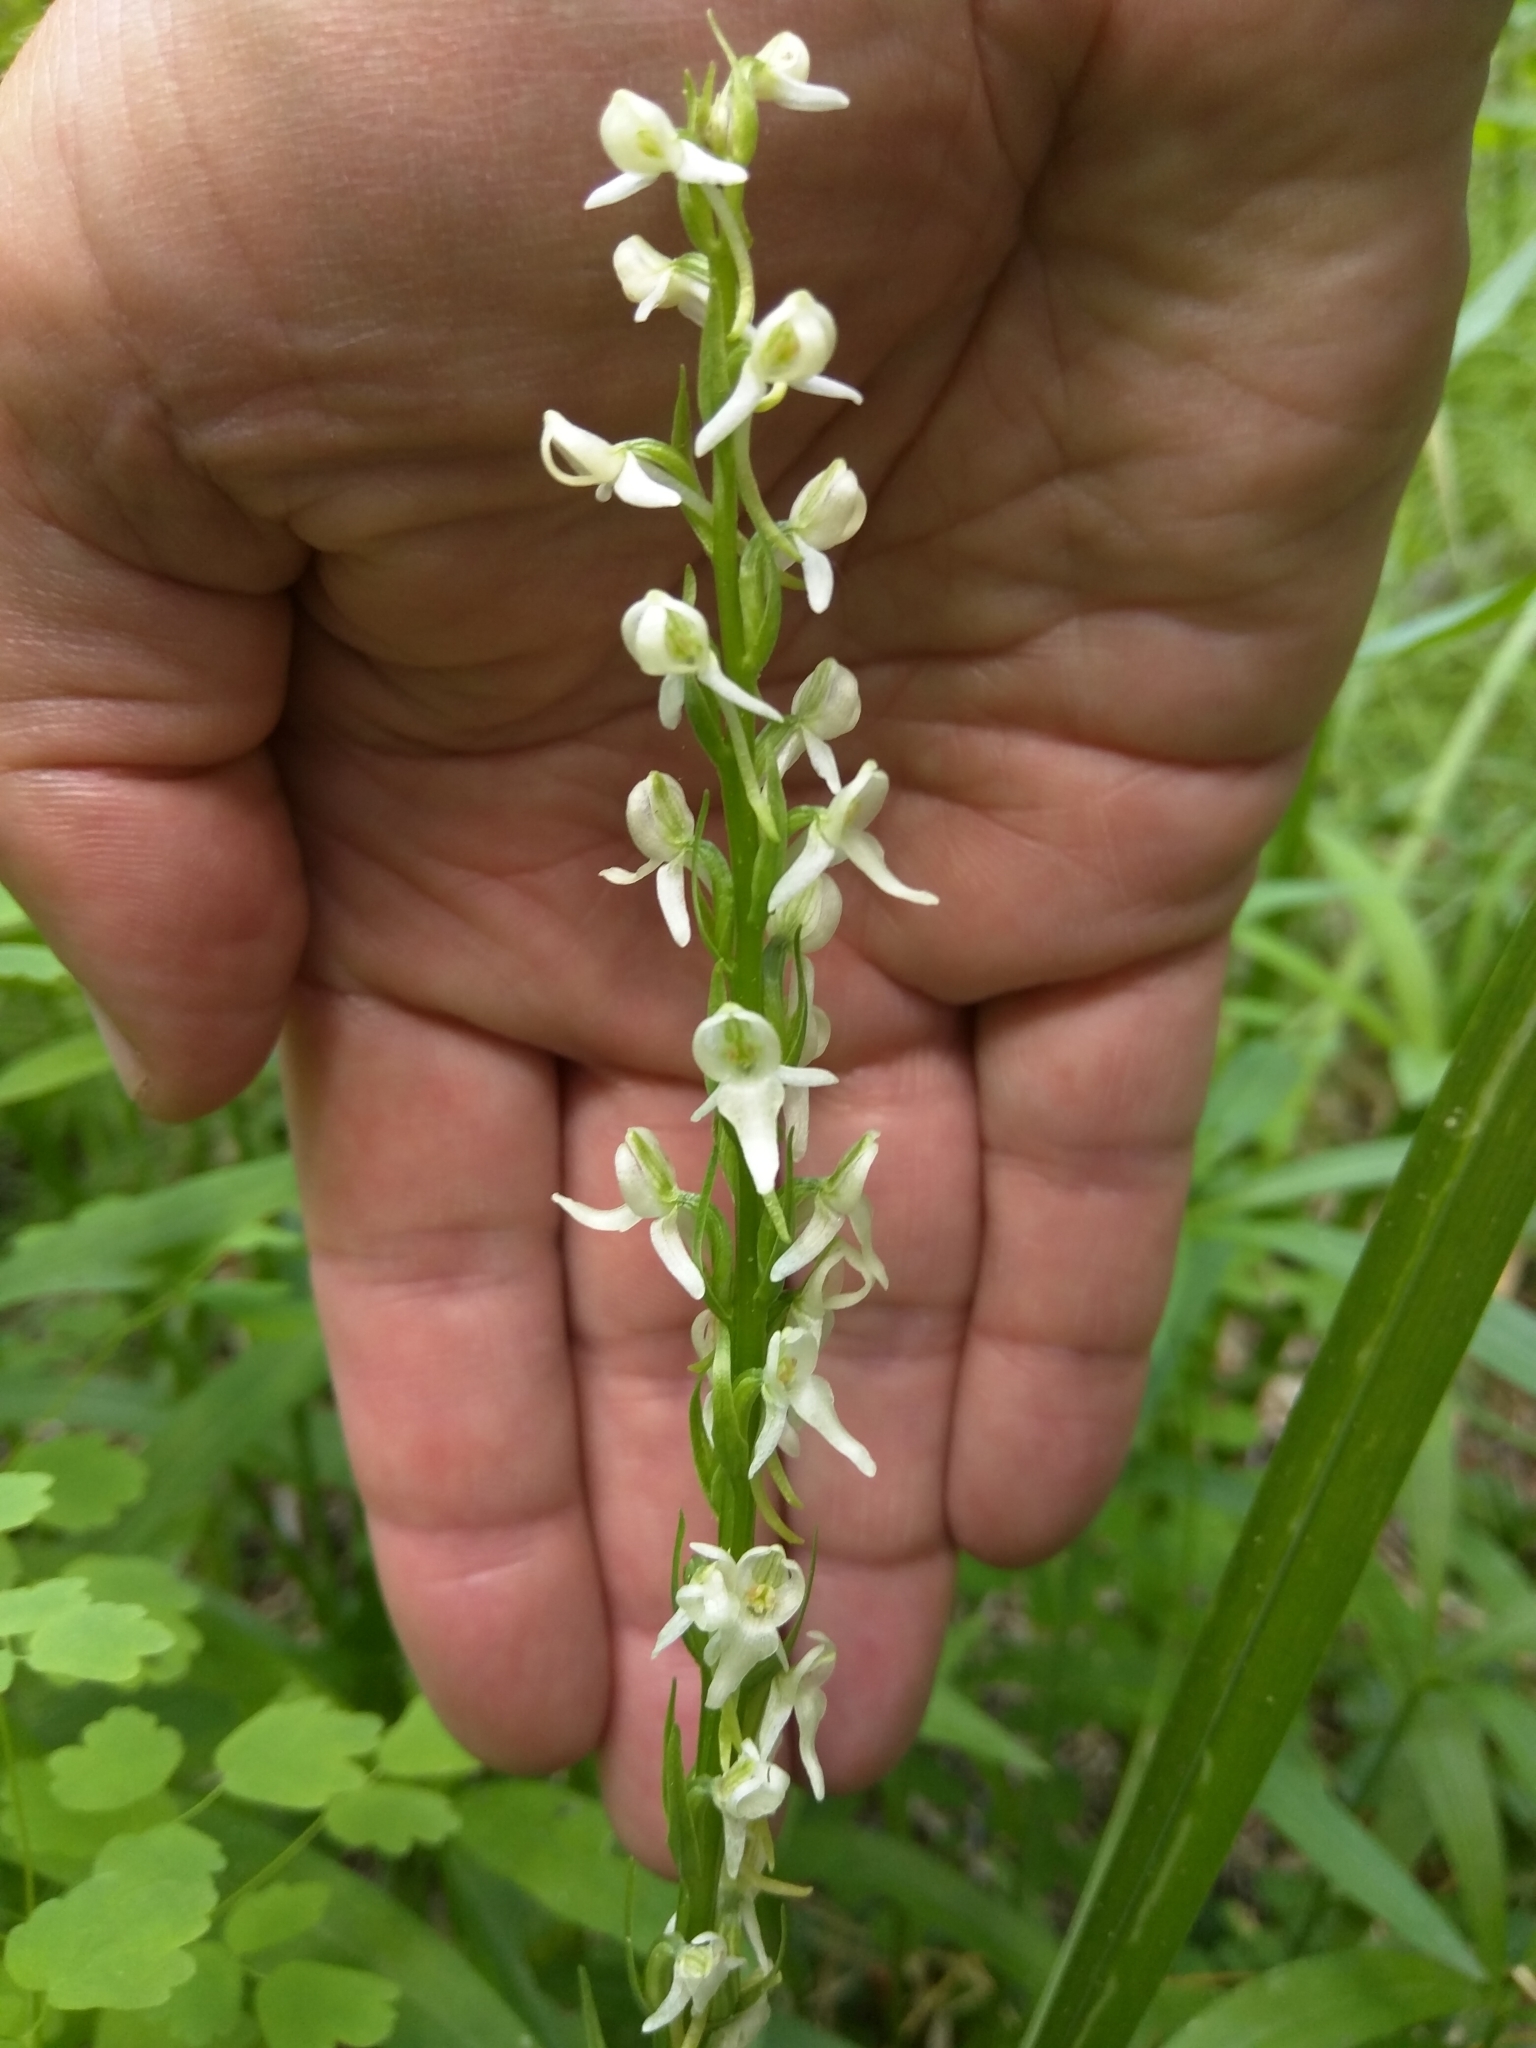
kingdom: Plantae
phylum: Tracheophyta
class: Liliopsida
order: Asparagales
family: Orchidaceae
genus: Platanthera
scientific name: Platanthera dilatata
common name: Bog candles
